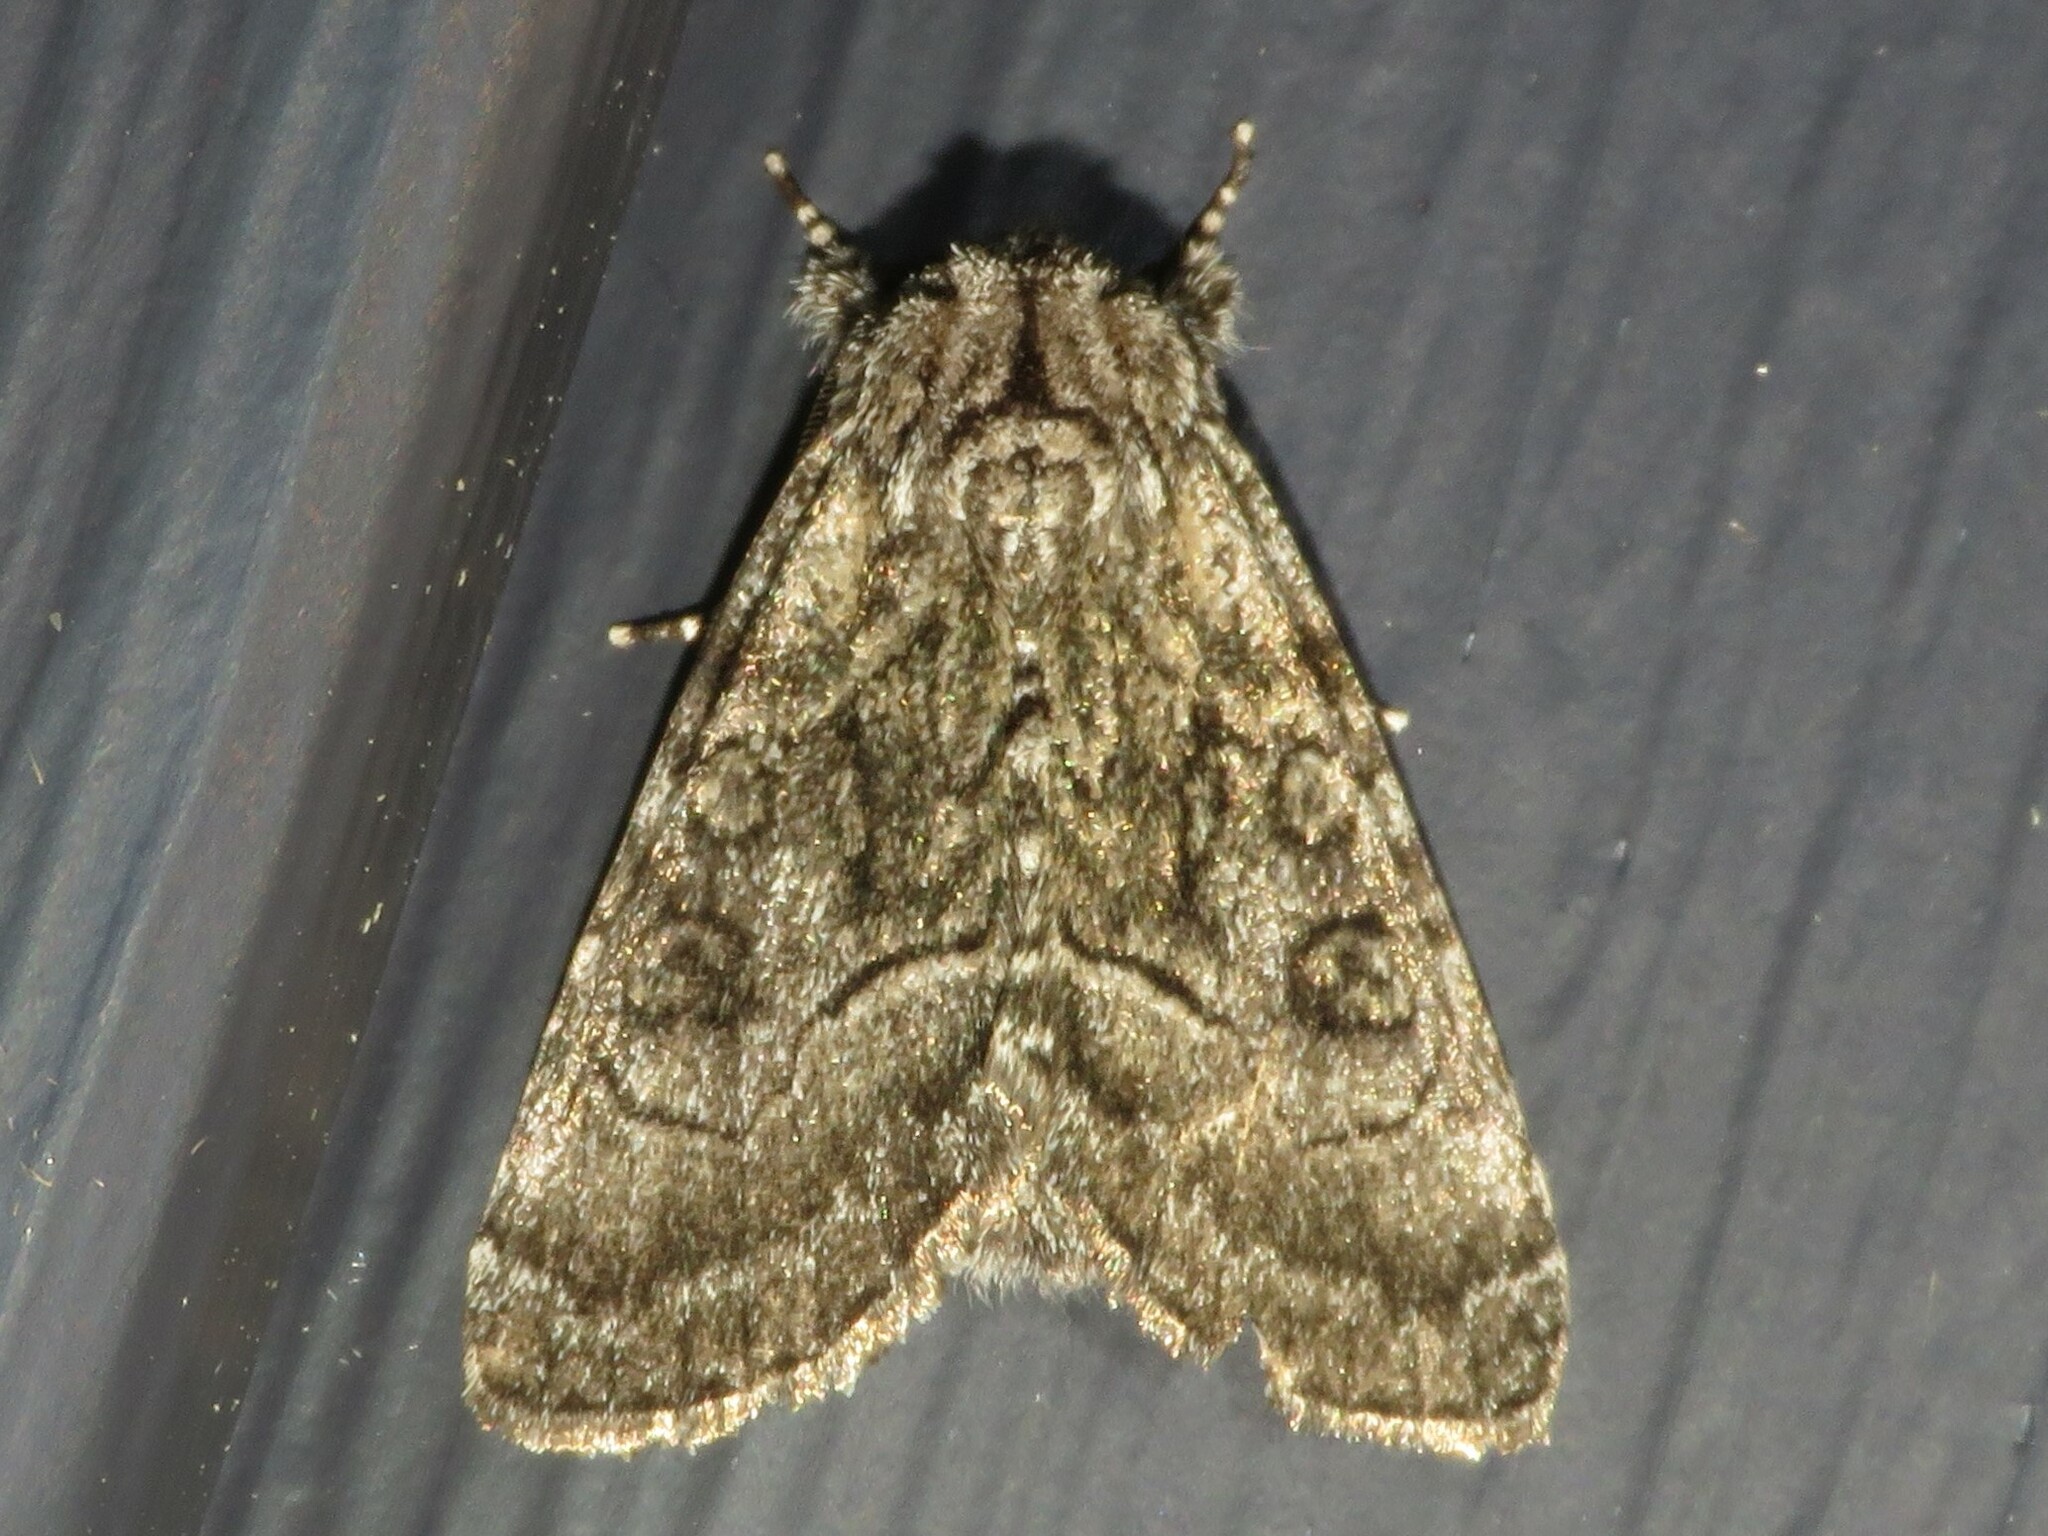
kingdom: Animalia
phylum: Arthropoda
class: Insecta
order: Lepidoptera
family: Noctuidae
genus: Raphia
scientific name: Raphia frater
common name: Brother
